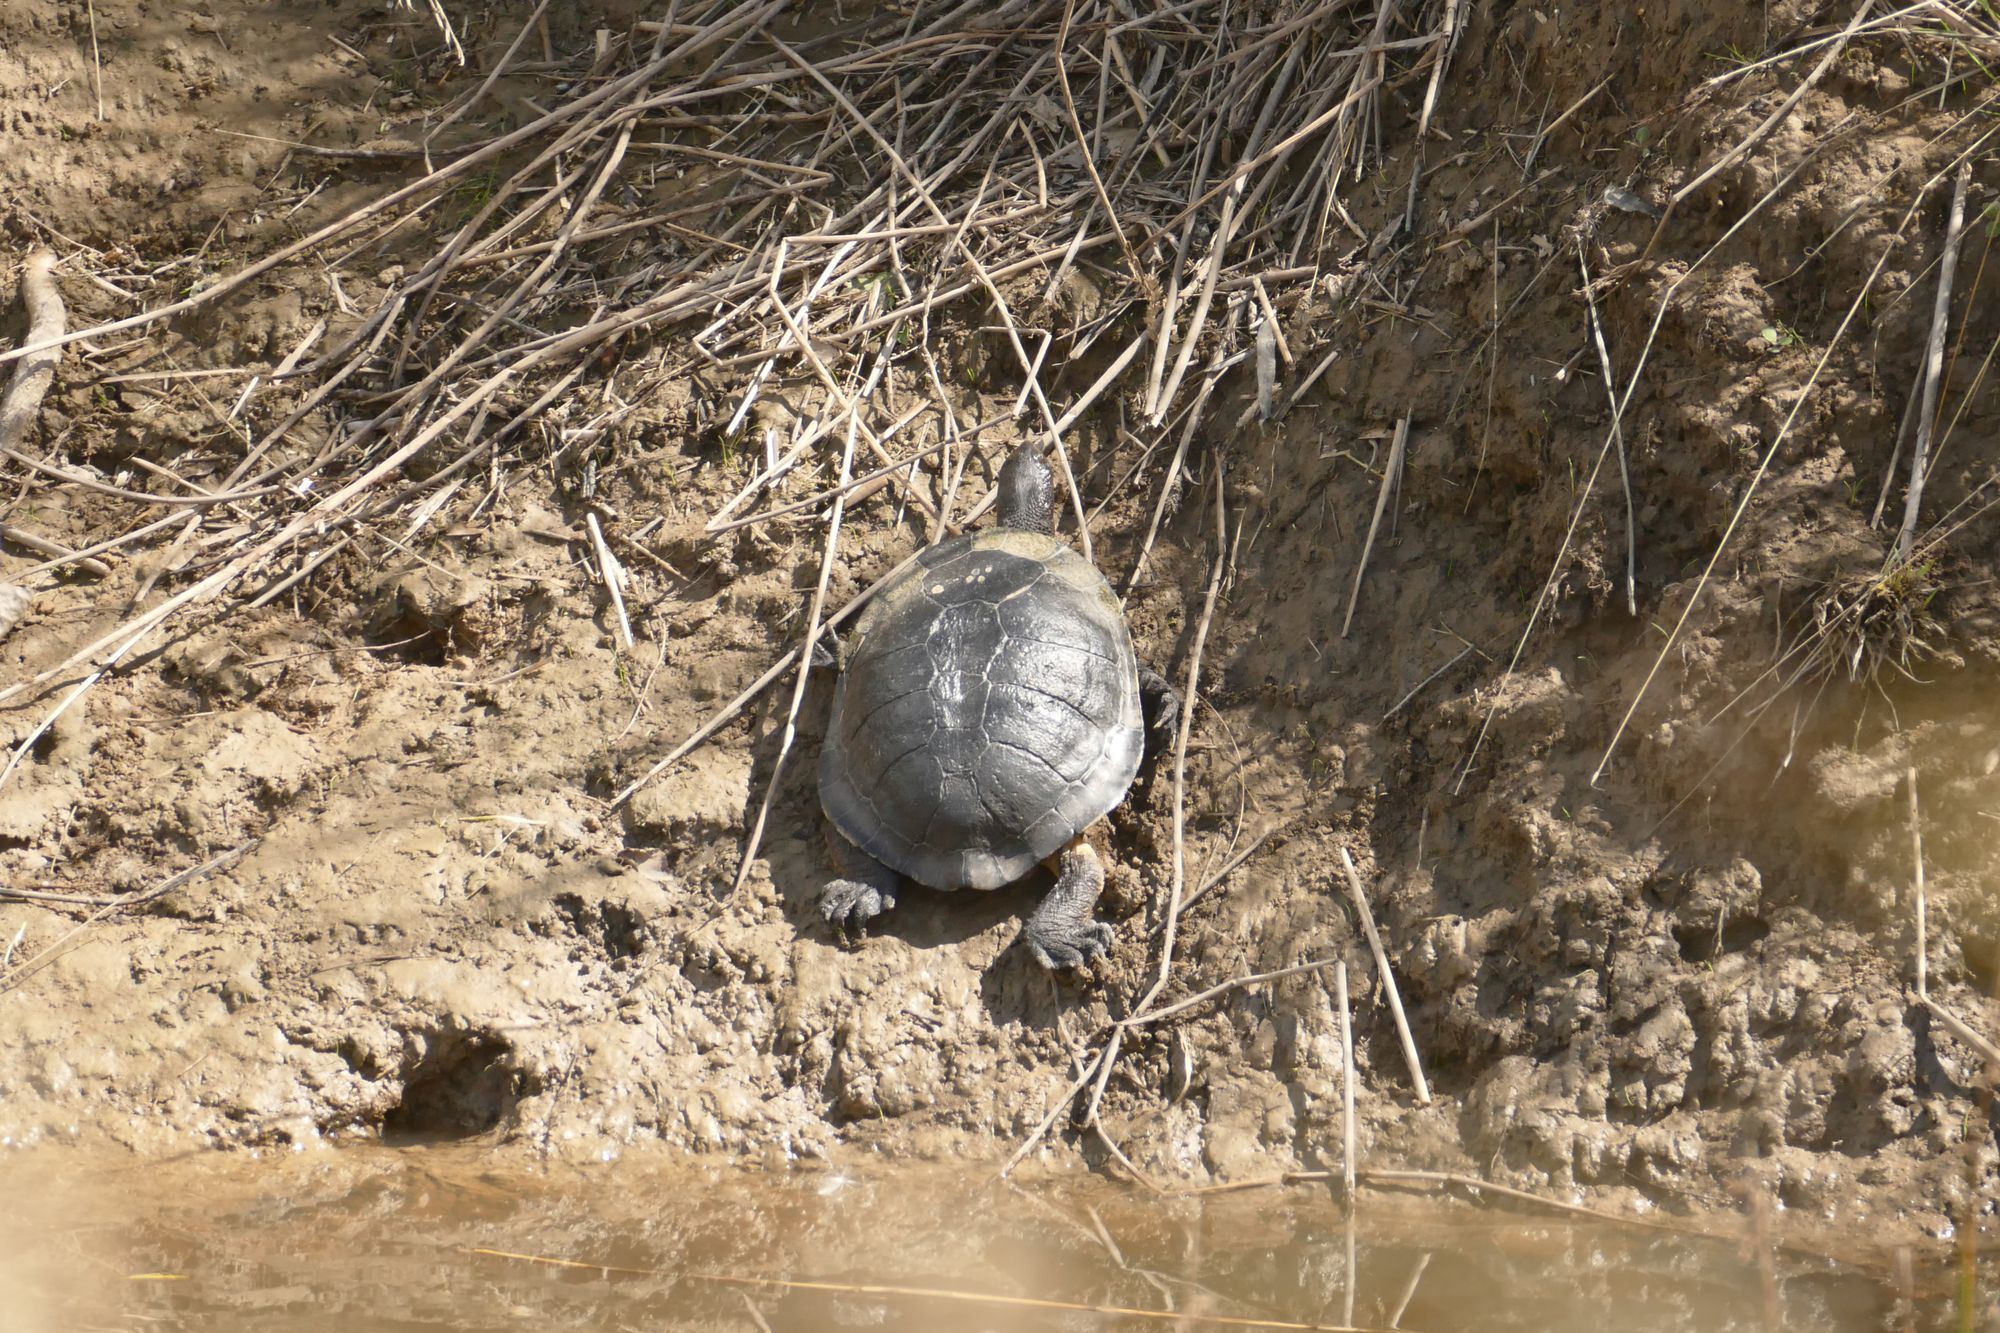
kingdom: Animalia
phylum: Chordata
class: Testudines
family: Chelidae
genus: Chelodina
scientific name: Chelodina longicollis
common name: Eastern snake-necked turtle
